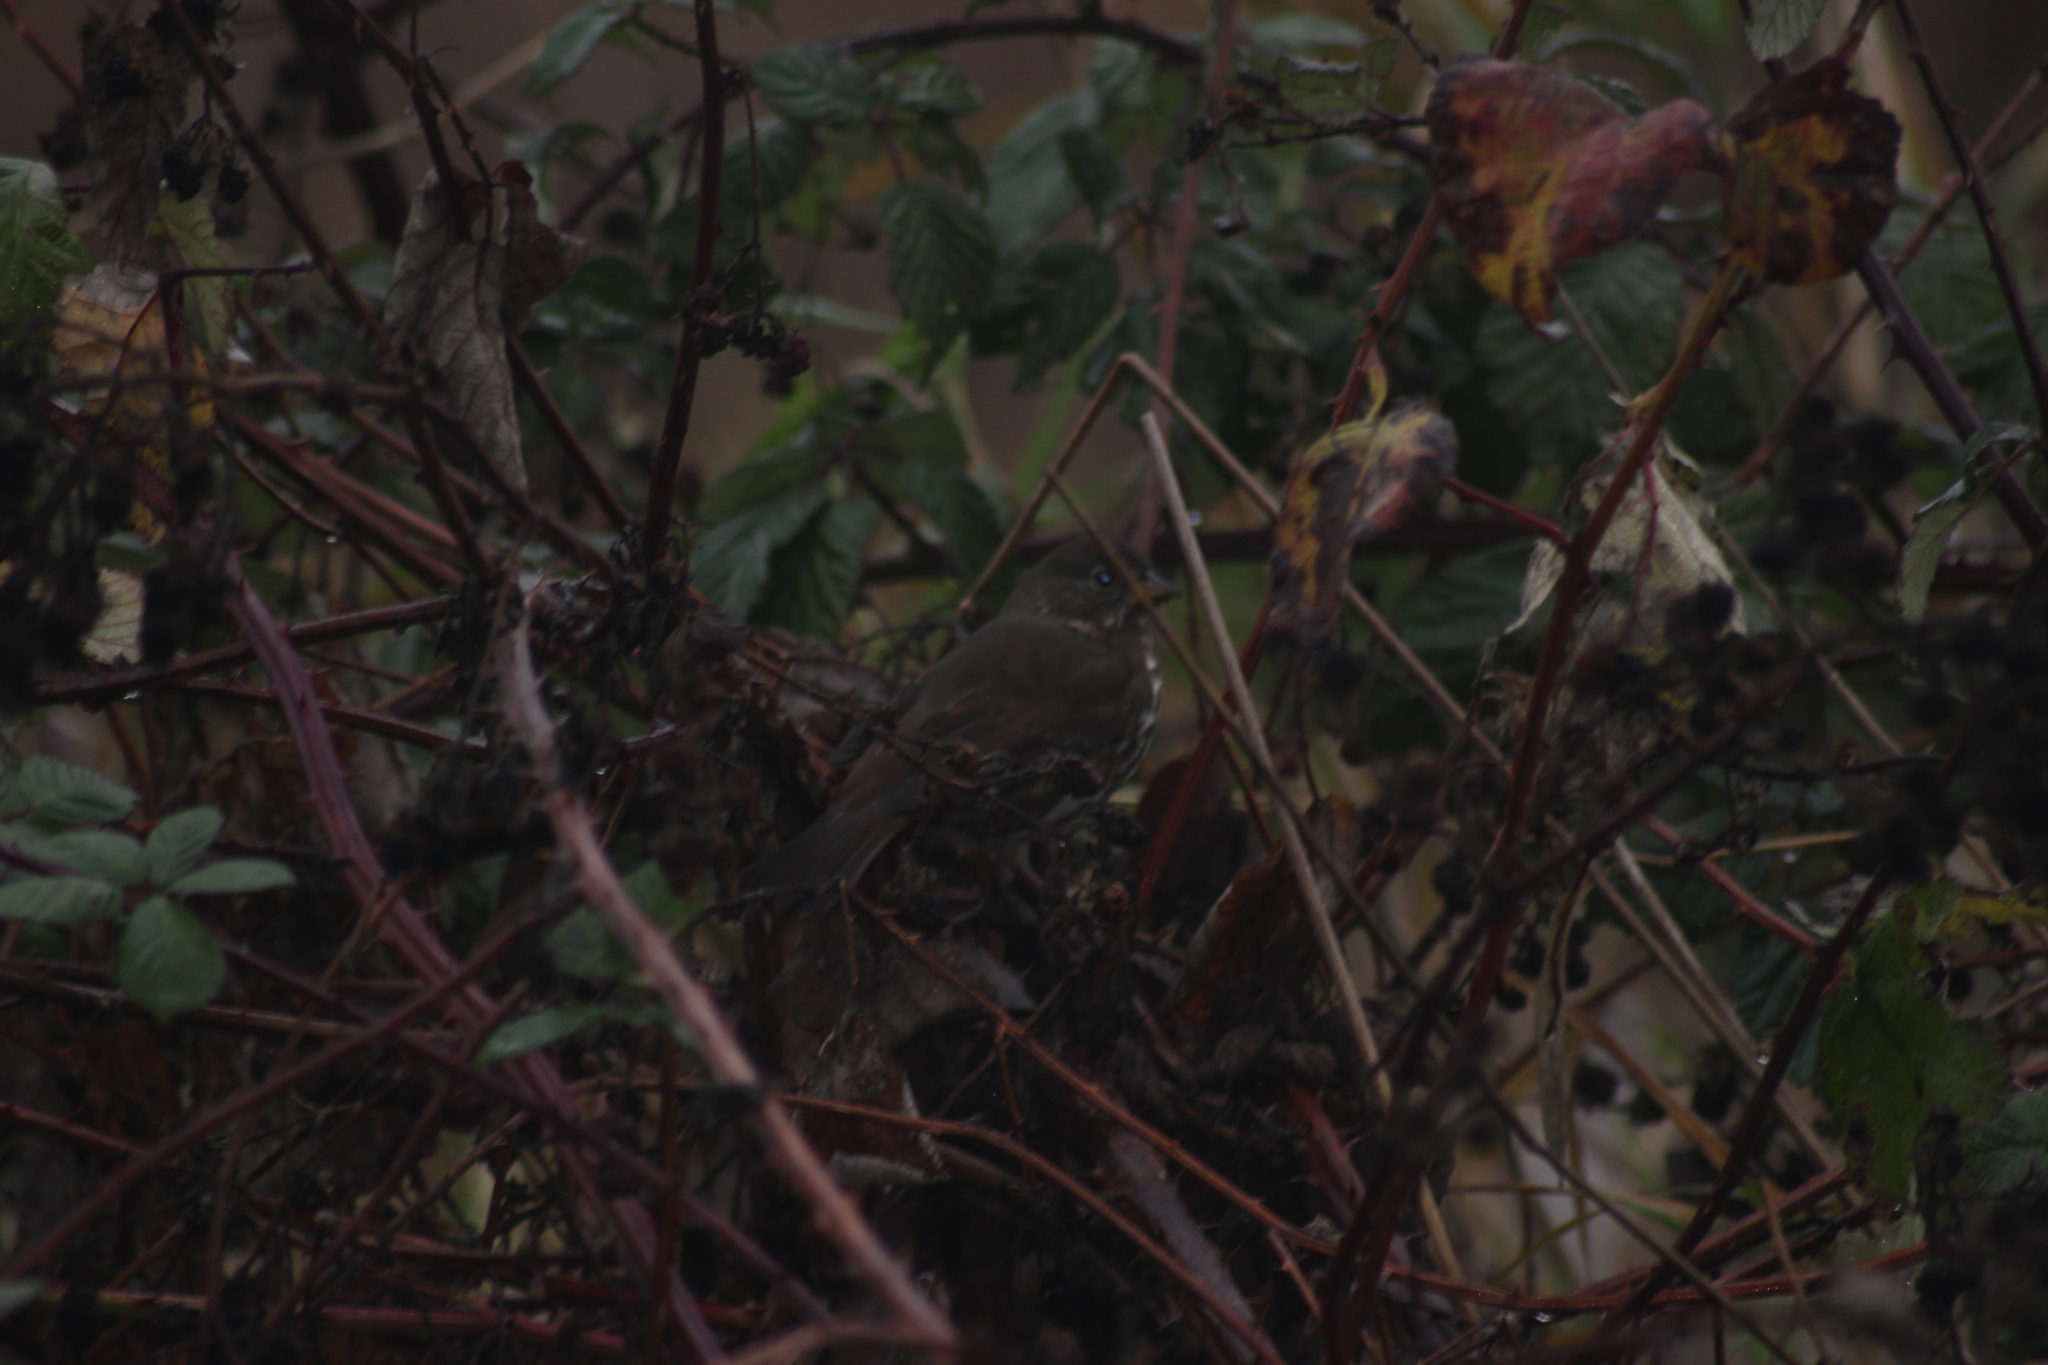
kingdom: Animalia
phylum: Chordata
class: Aves
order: Passeriformes
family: Passerellidae
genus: Passerella
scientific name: Passerella iliaca
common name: Fox sparrow
